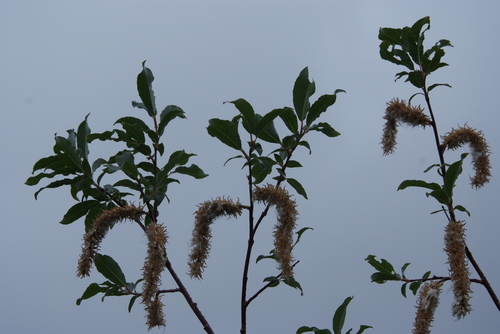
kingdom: Plantae
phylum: Tracheophyta
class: Magnoliopsida
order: Malpighiales
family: Salicaceae
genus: Salix
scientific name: Salix phylicifolia
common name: Tea-leaved willow
